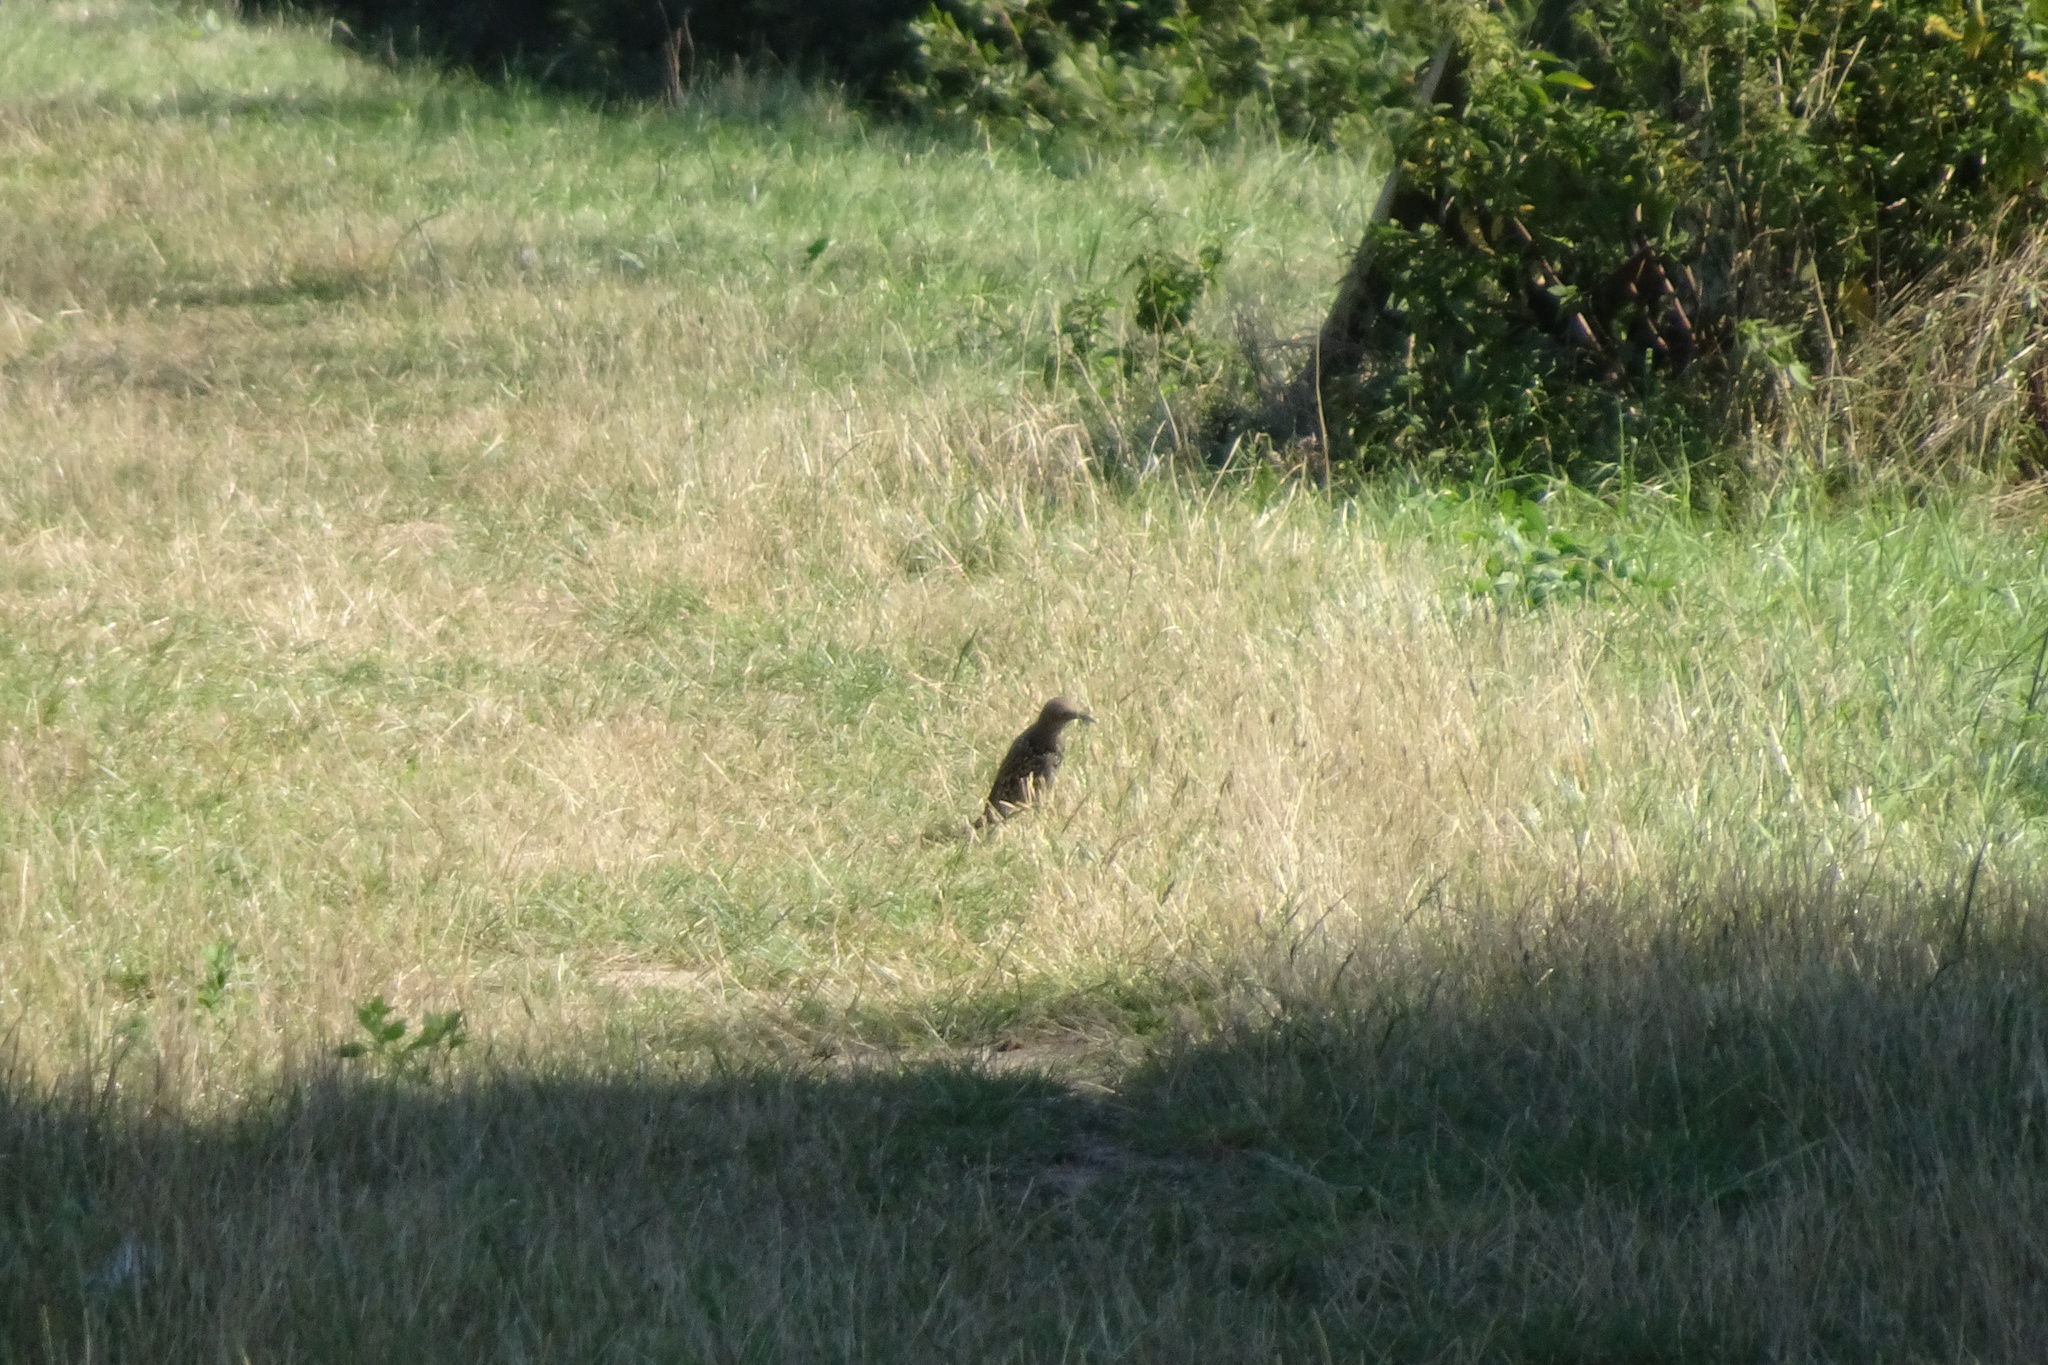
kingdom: Animalia
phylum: Chordata
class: Aves
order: Passeriformes
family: Sturnidae
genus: Sturnus
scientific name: Sturnus vulgaris
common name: Common starling
